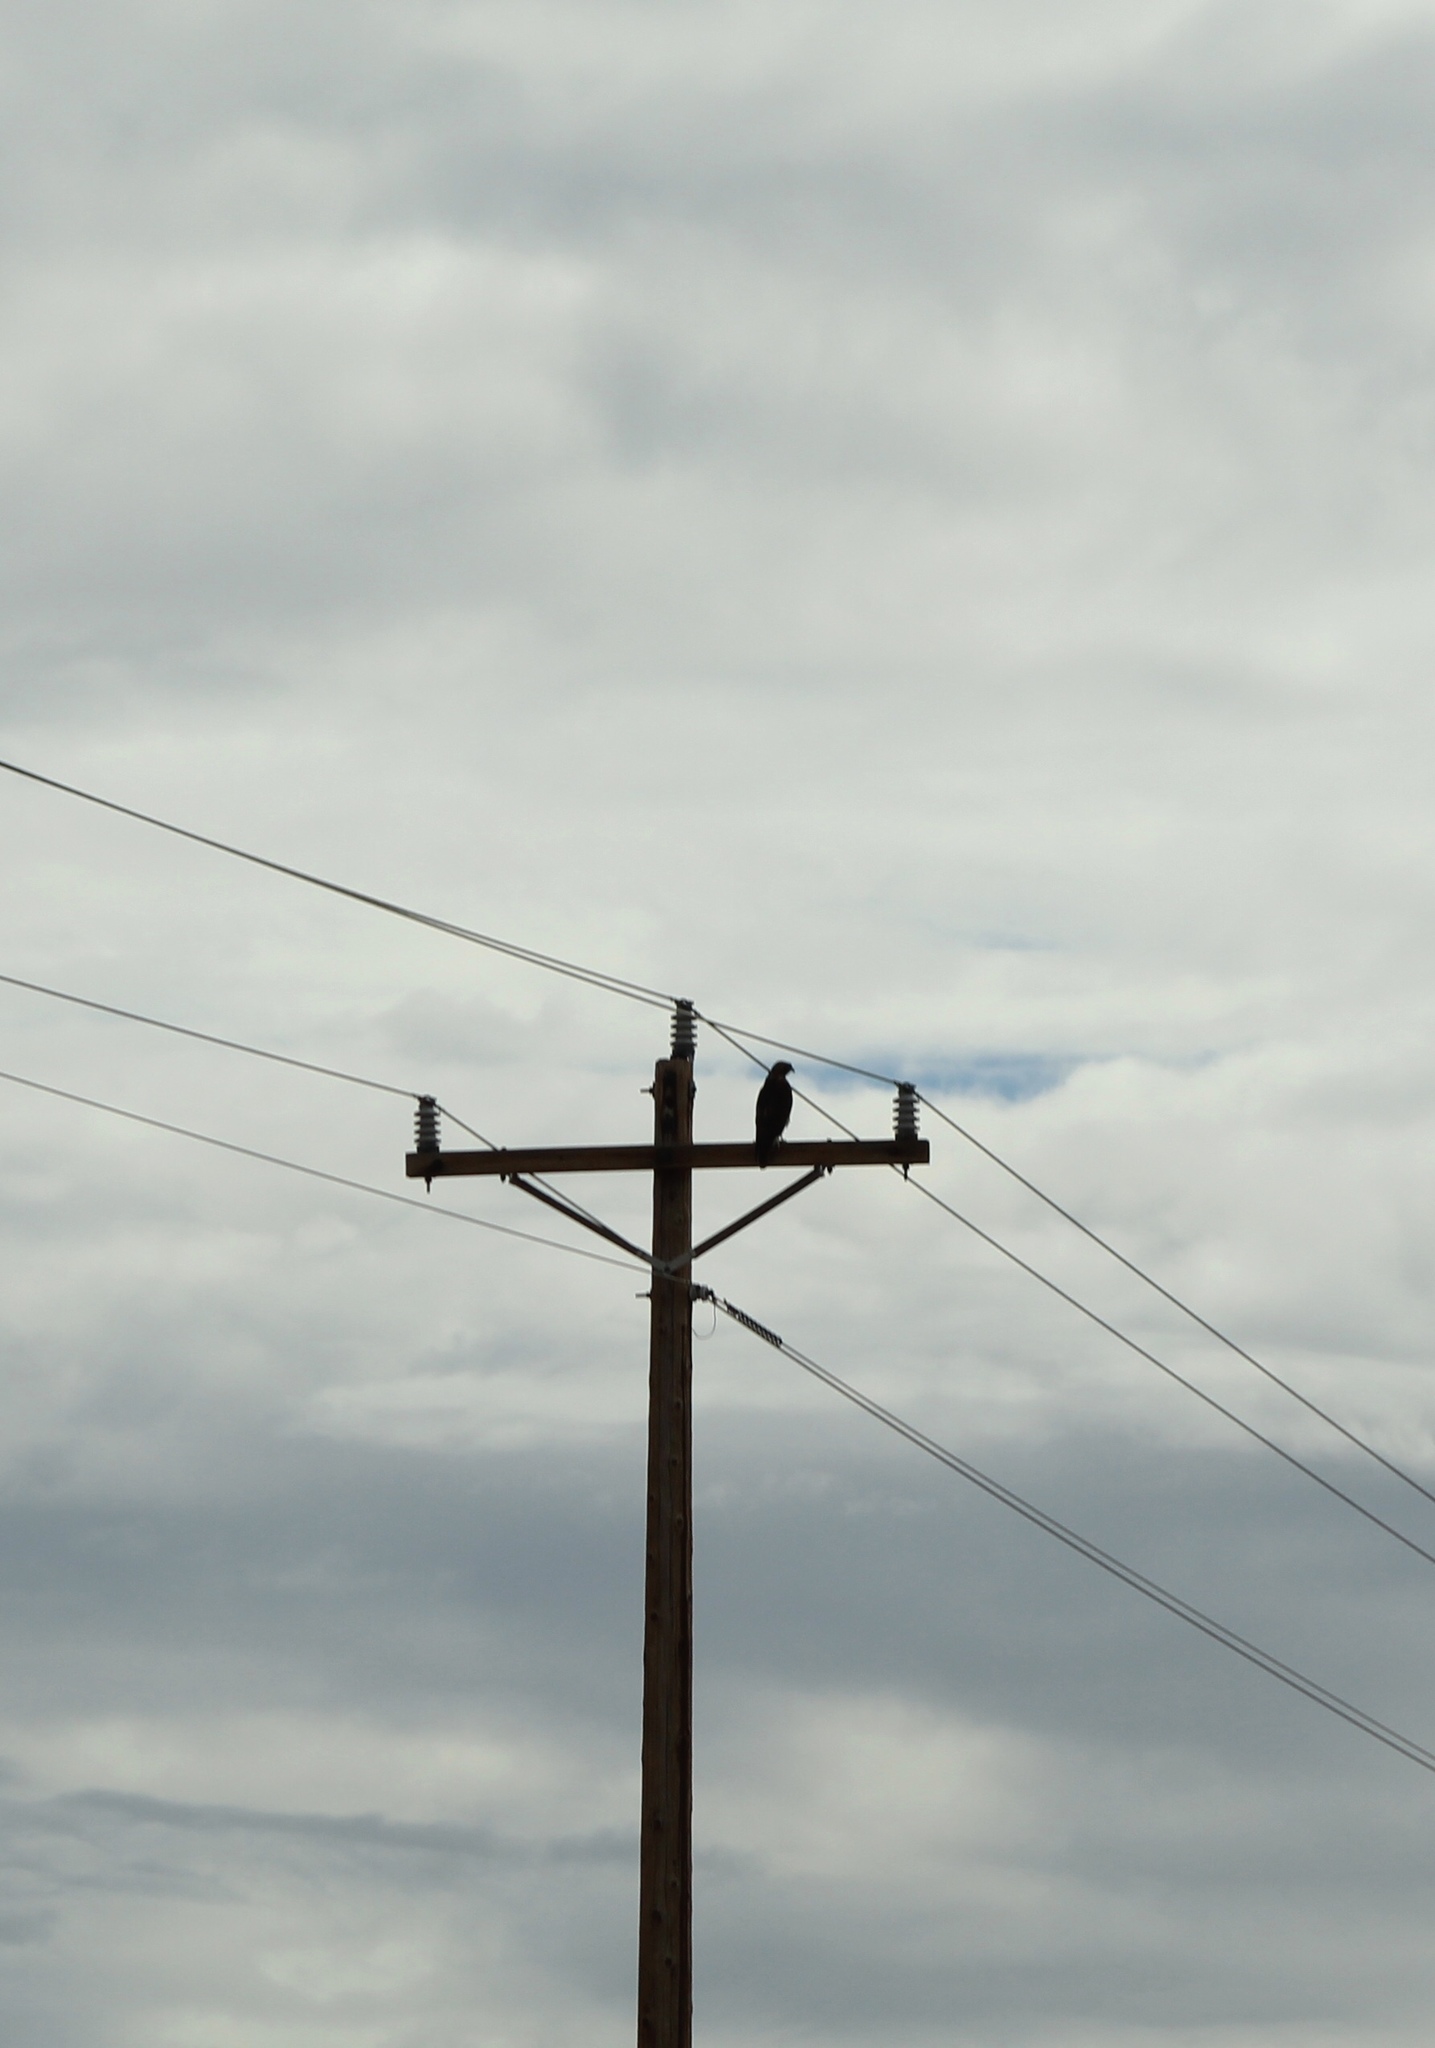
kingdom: Animalia
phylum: Chordata
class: Aves
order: Accipitriformes
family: Accipitridae
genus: Buteo
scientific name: Buteo jamaicensis
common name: Red-tailed hawk
